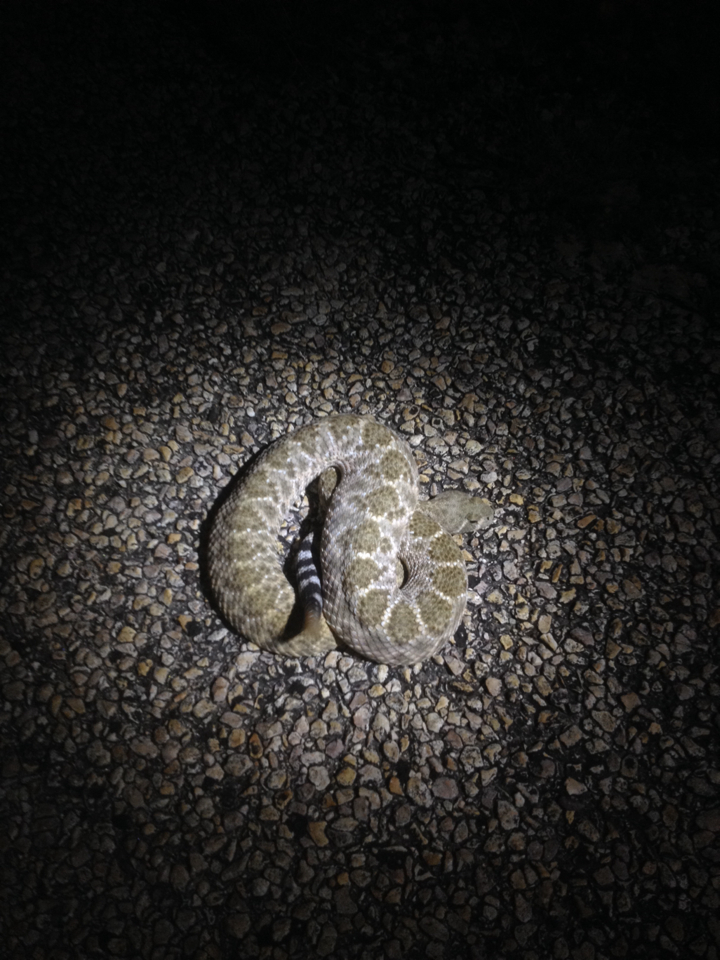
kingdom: Animalia
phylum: Chordata
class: Squamata
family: Viperidae
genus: Crotalus
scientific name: Crotalus atrox
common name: Western diamond-backed rattlesnake
